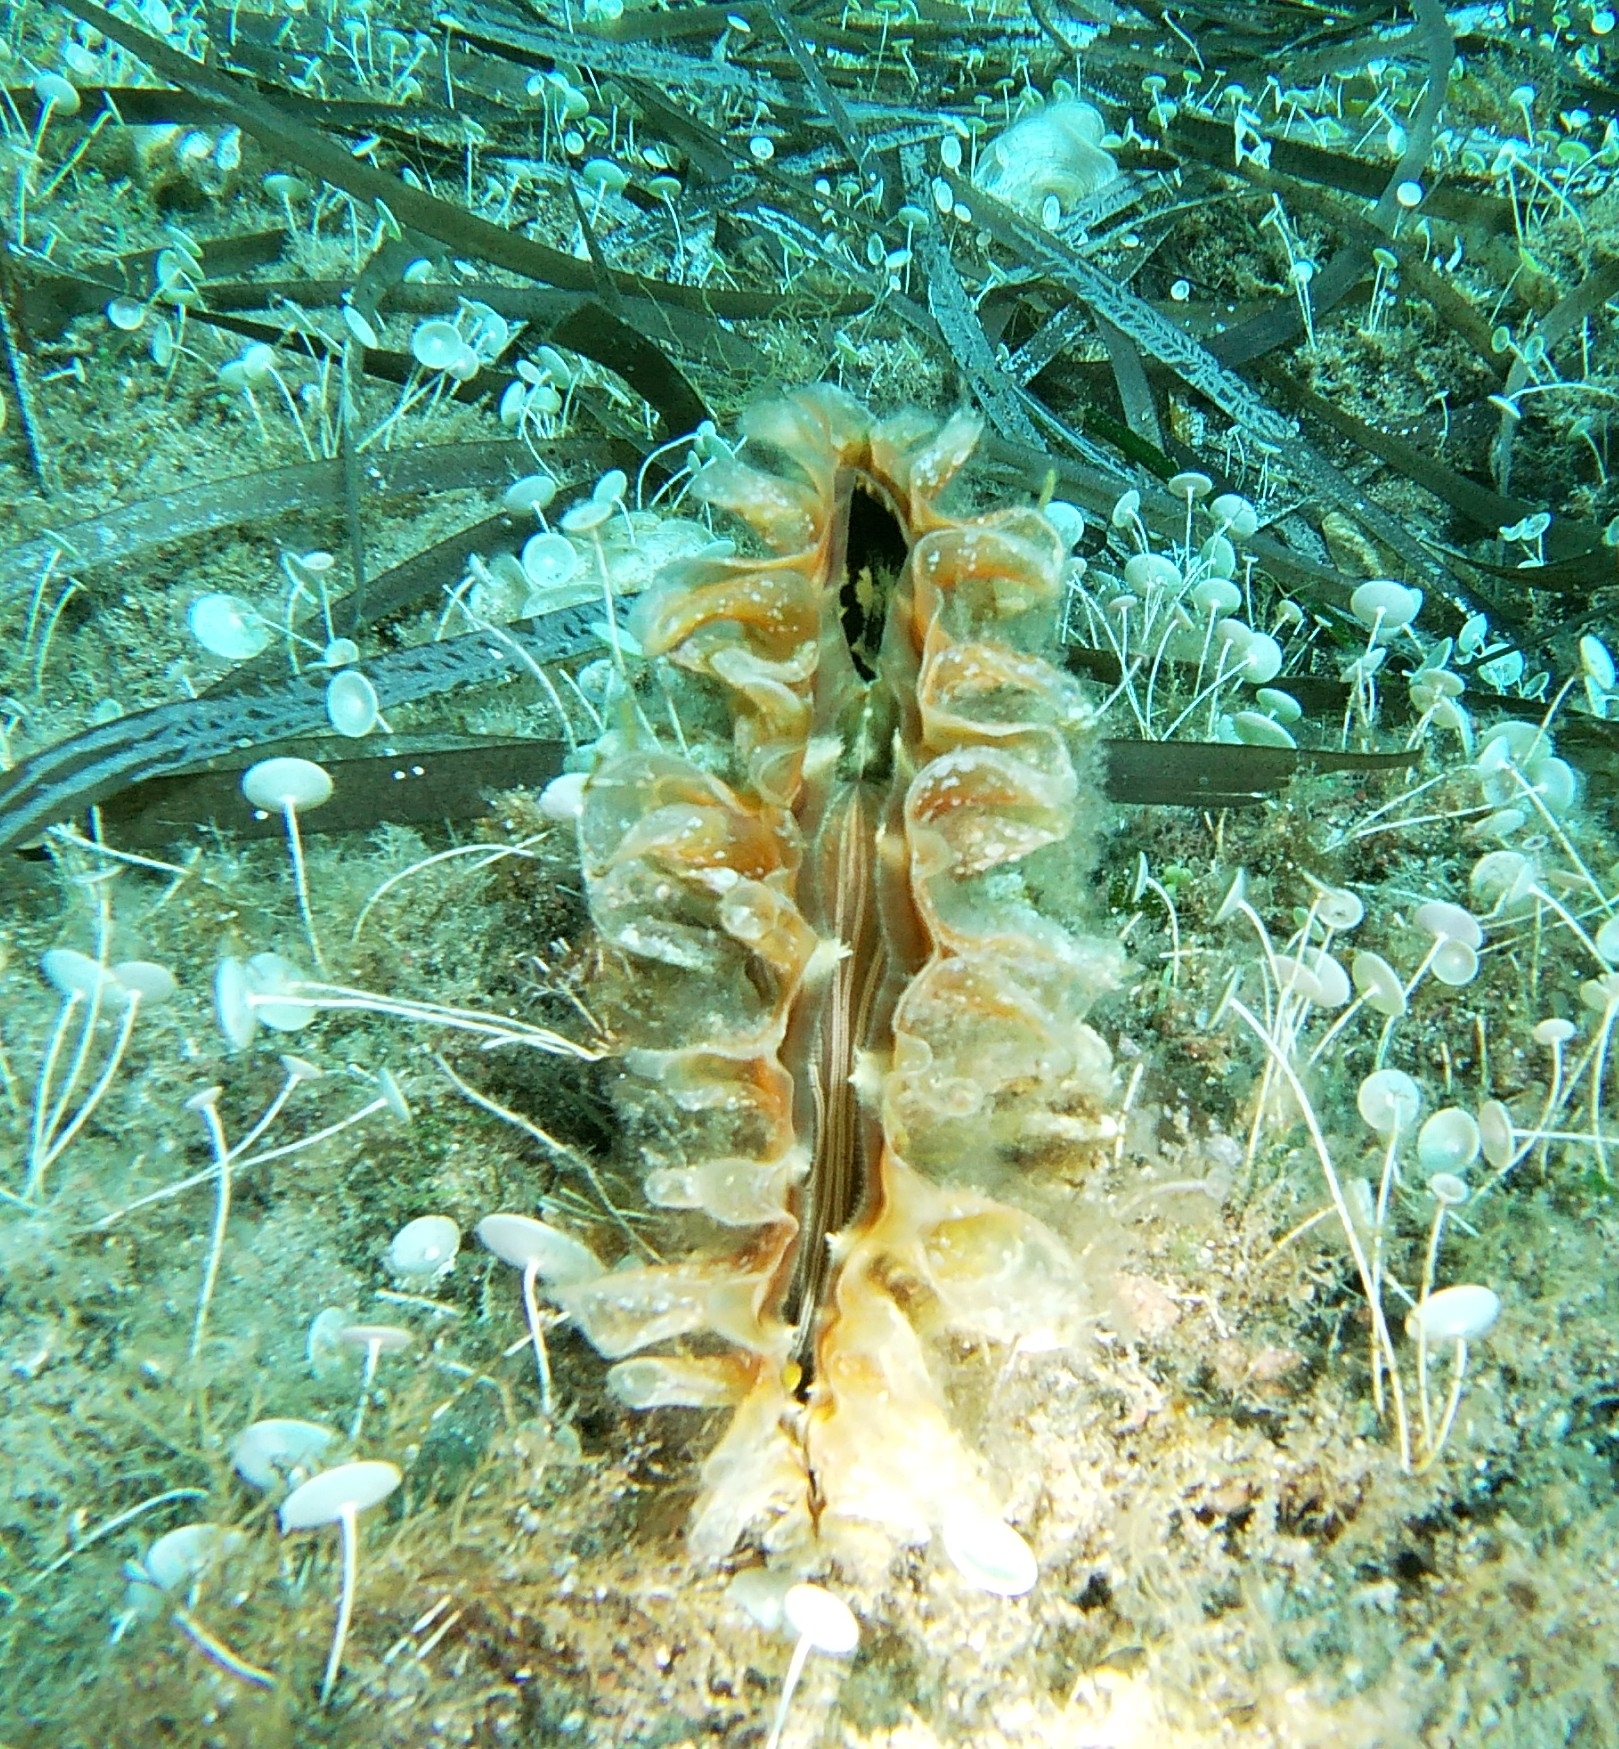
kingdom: Animalia
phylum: Mollusca
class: Bivalvia
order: Ostreida
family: Pinnidae
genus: Pinna
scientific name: Pinna rudis
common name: Rough penshell
